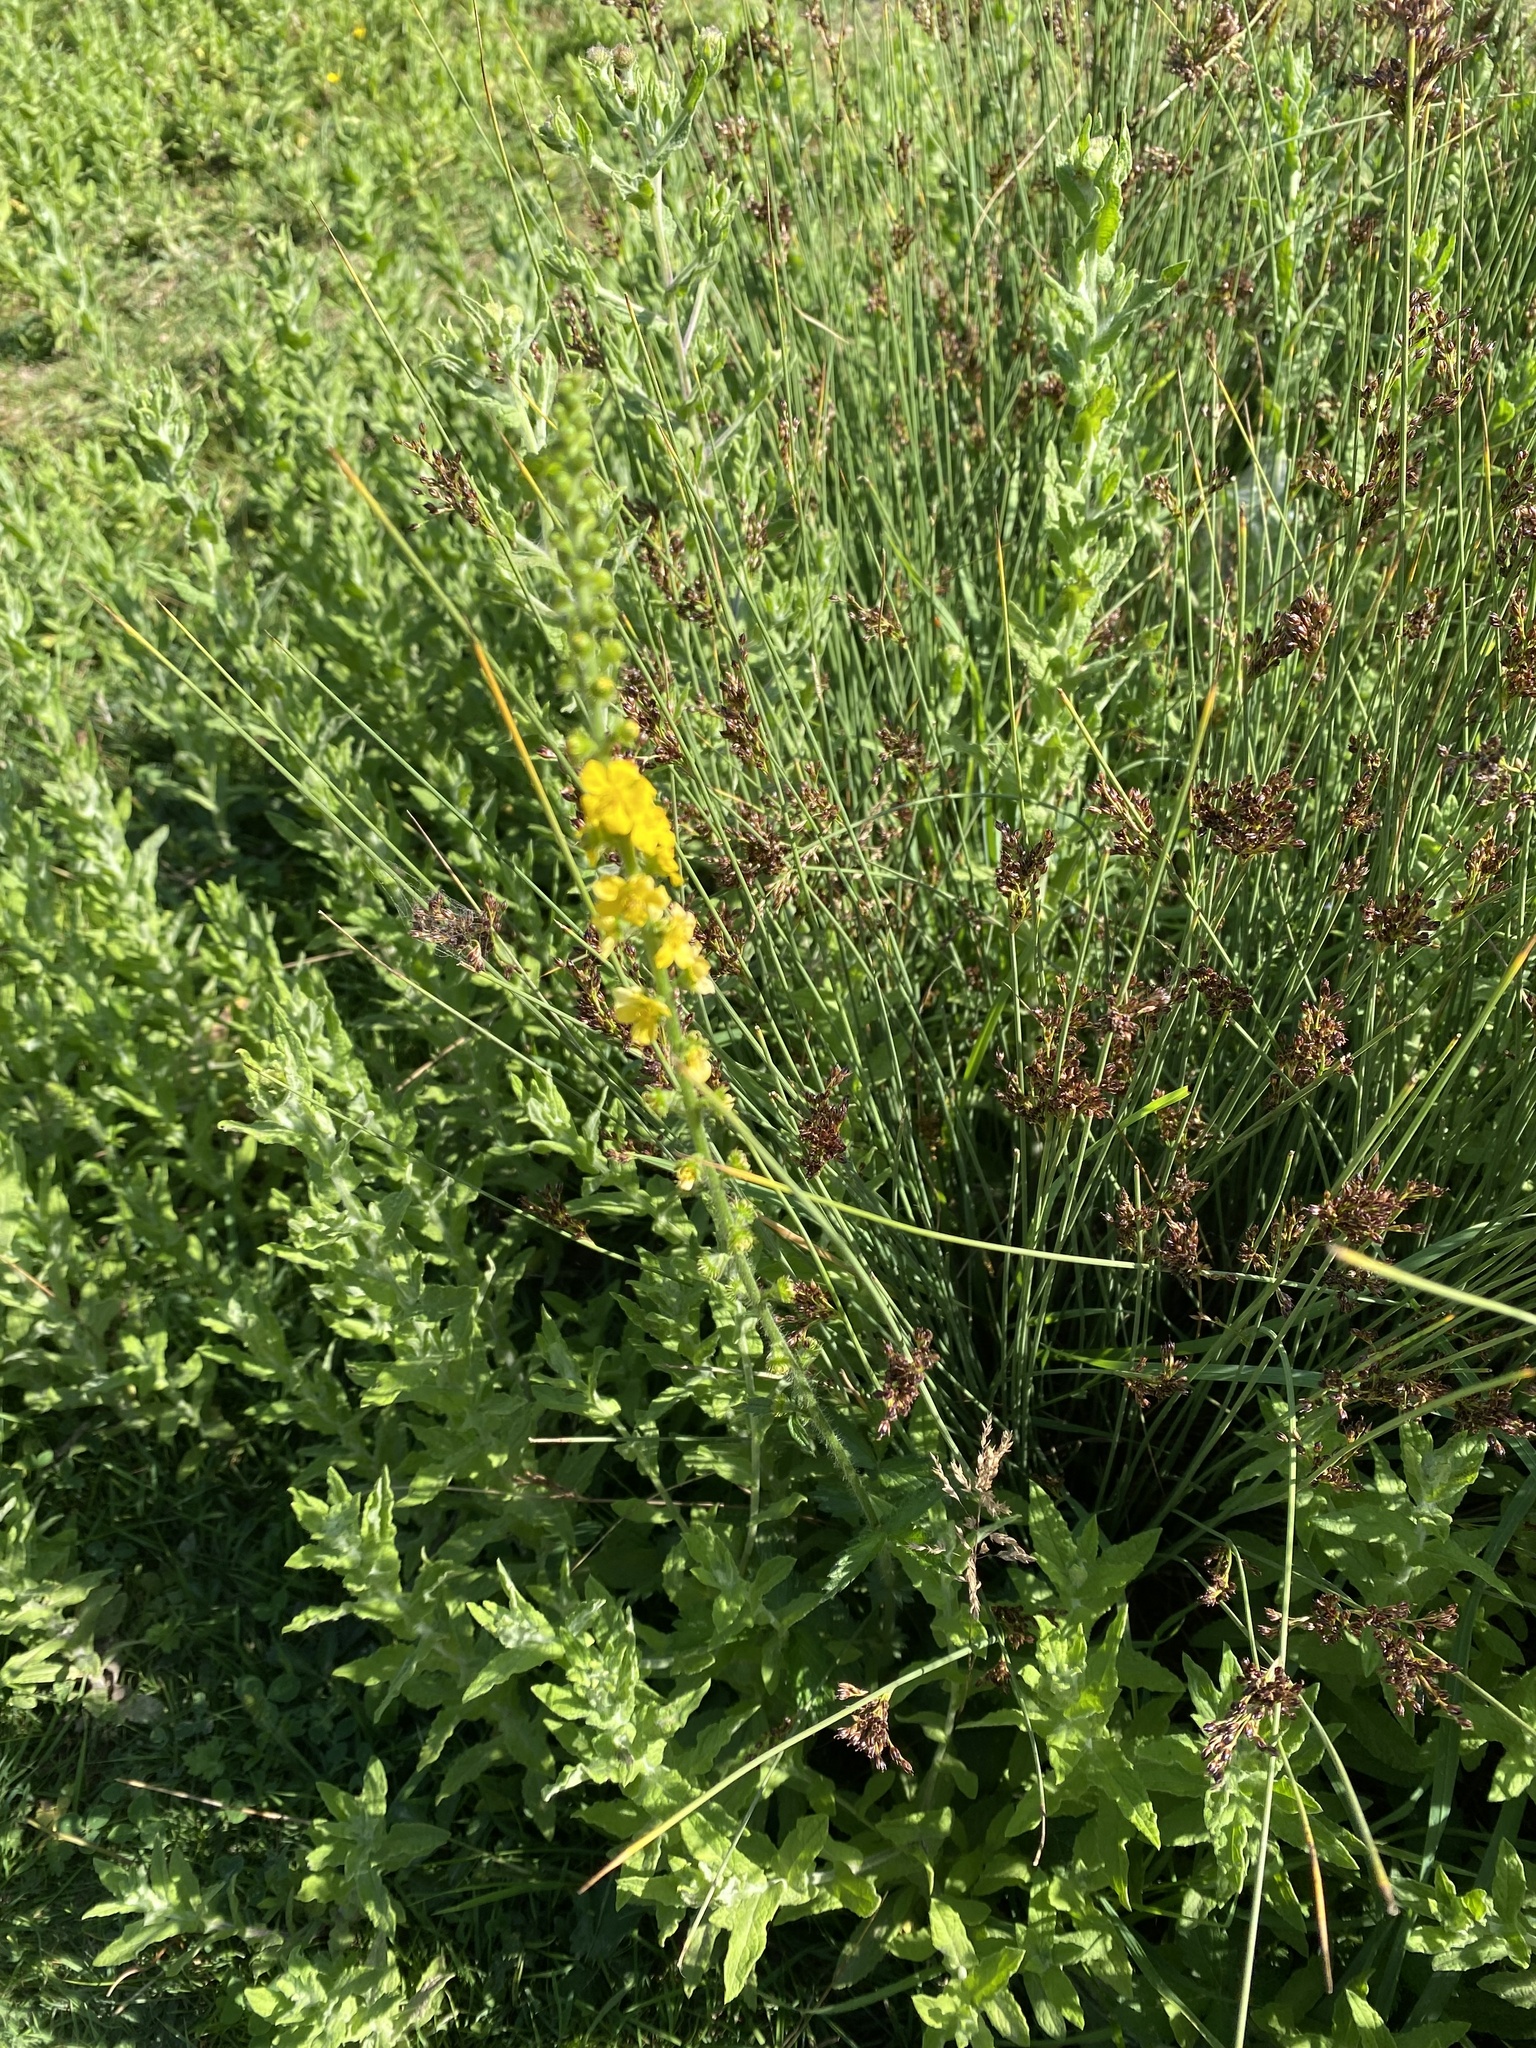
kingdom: Plantae
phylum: Tracheophyta
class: Magnoliopsida
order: Rosales
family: Rosaceae
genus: Agrimonia
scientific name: Agrimonia eupatoria
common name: Agrimony
